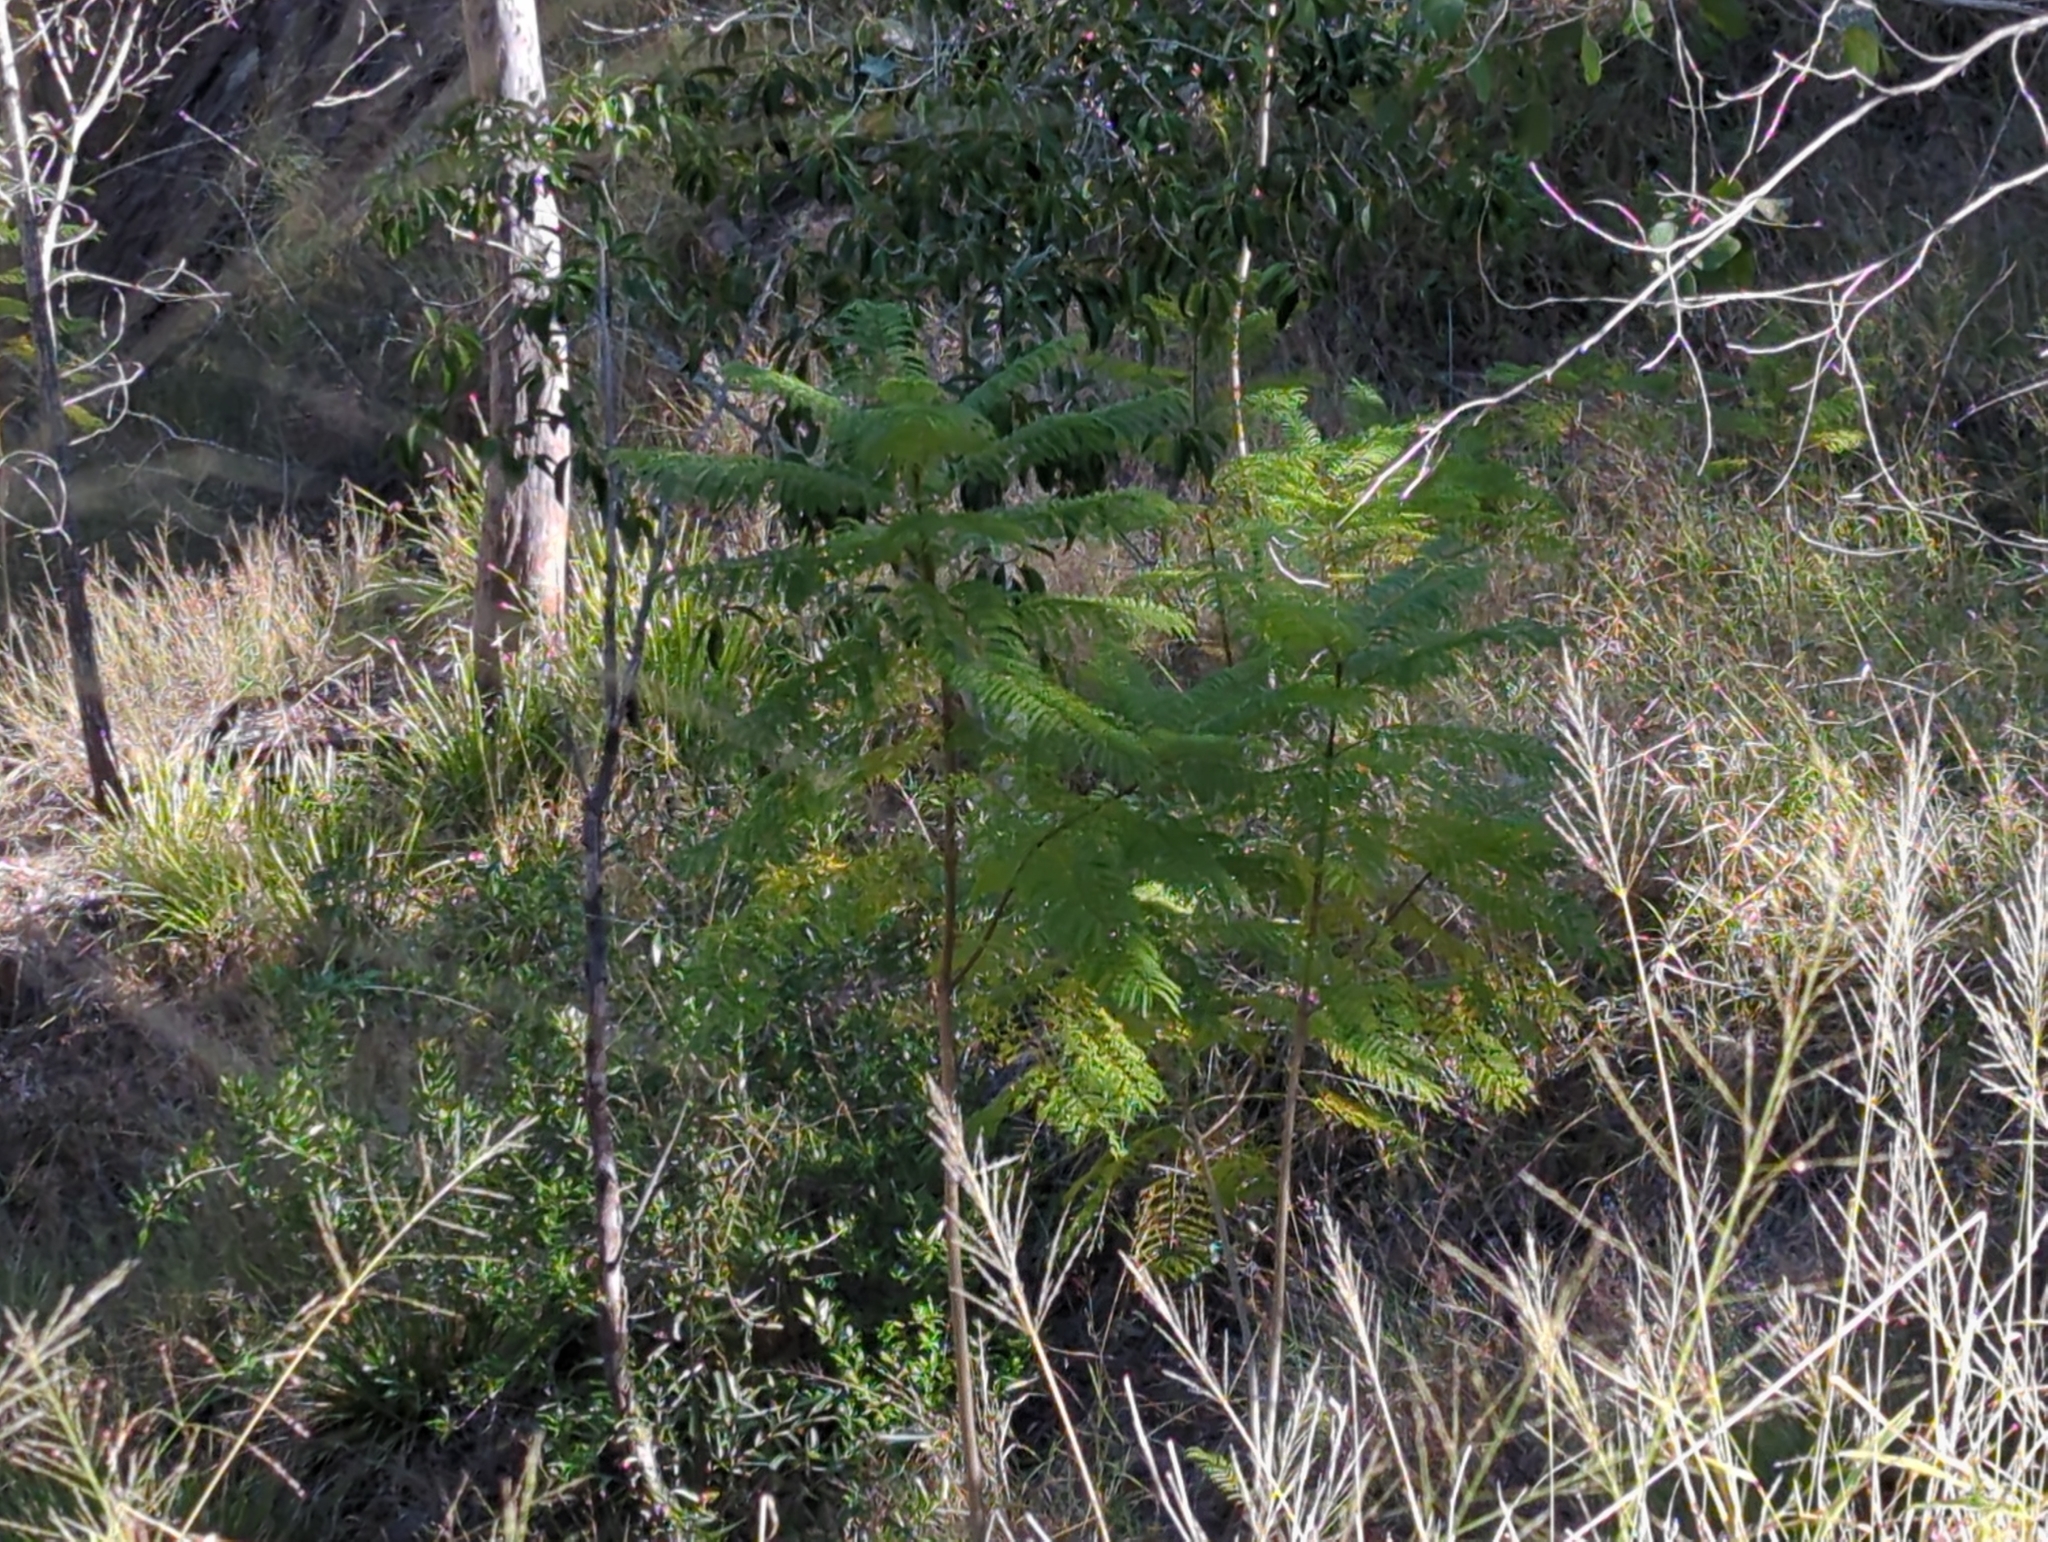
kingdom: Plantae
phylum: Tracheophyta
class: Magnoliopsida
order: Lamiales
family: Bignoniaceae
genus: Jacaranda
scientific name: Jacaranda mimosifolia
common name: Black poui
